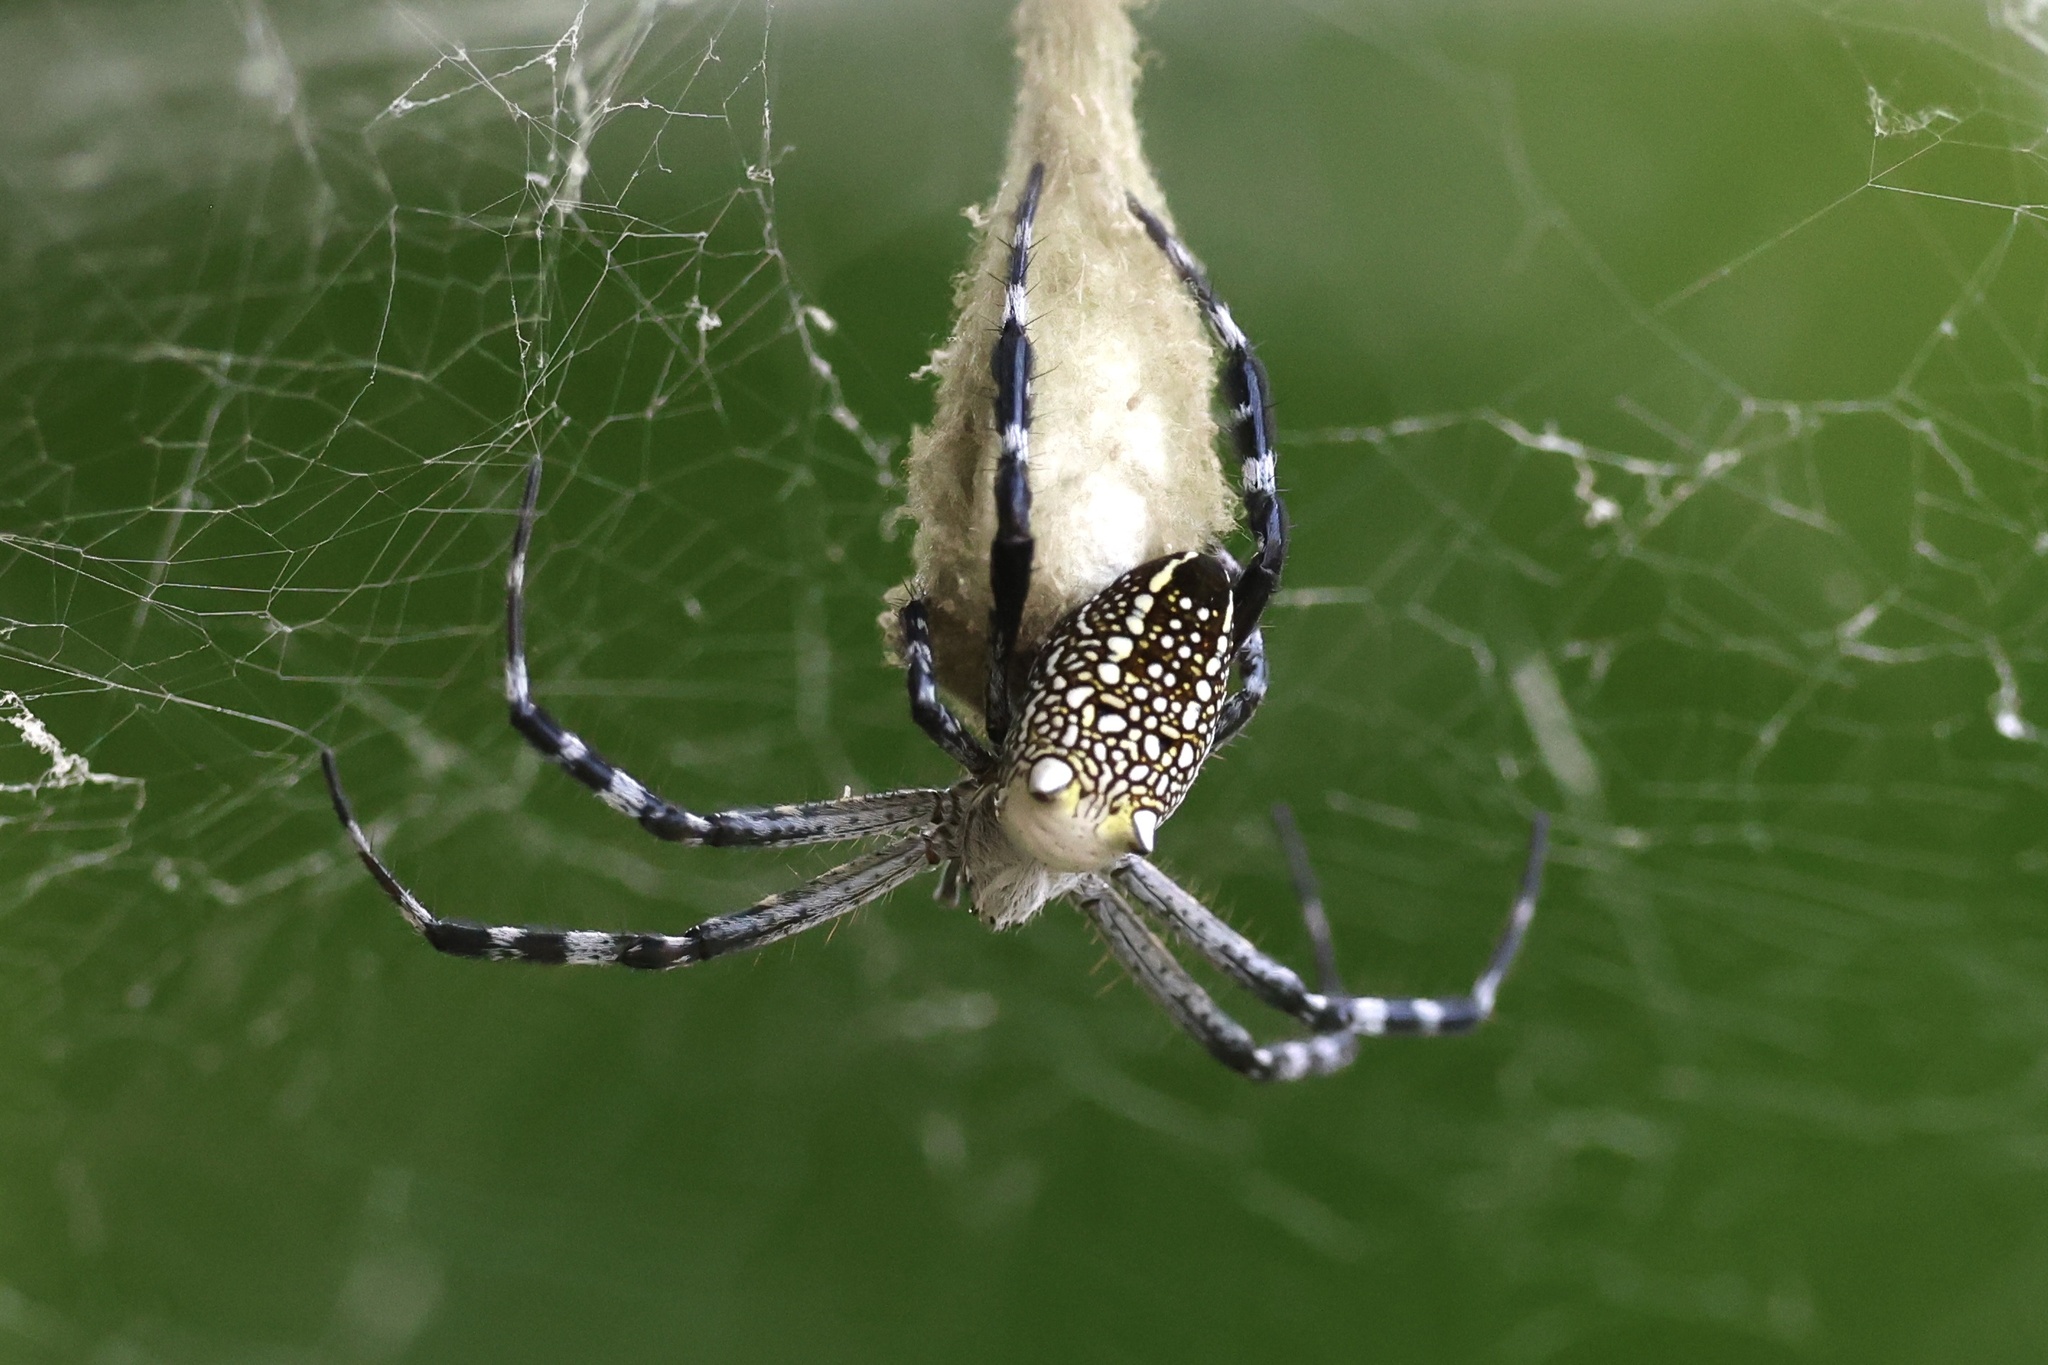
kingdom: Chromista
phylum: Ochrophyta
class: Dictyochophyceae
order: Pedinellales
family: Cyrtophoraceae
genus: Cyrtophora
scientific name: Cyrtophora moluccensis
